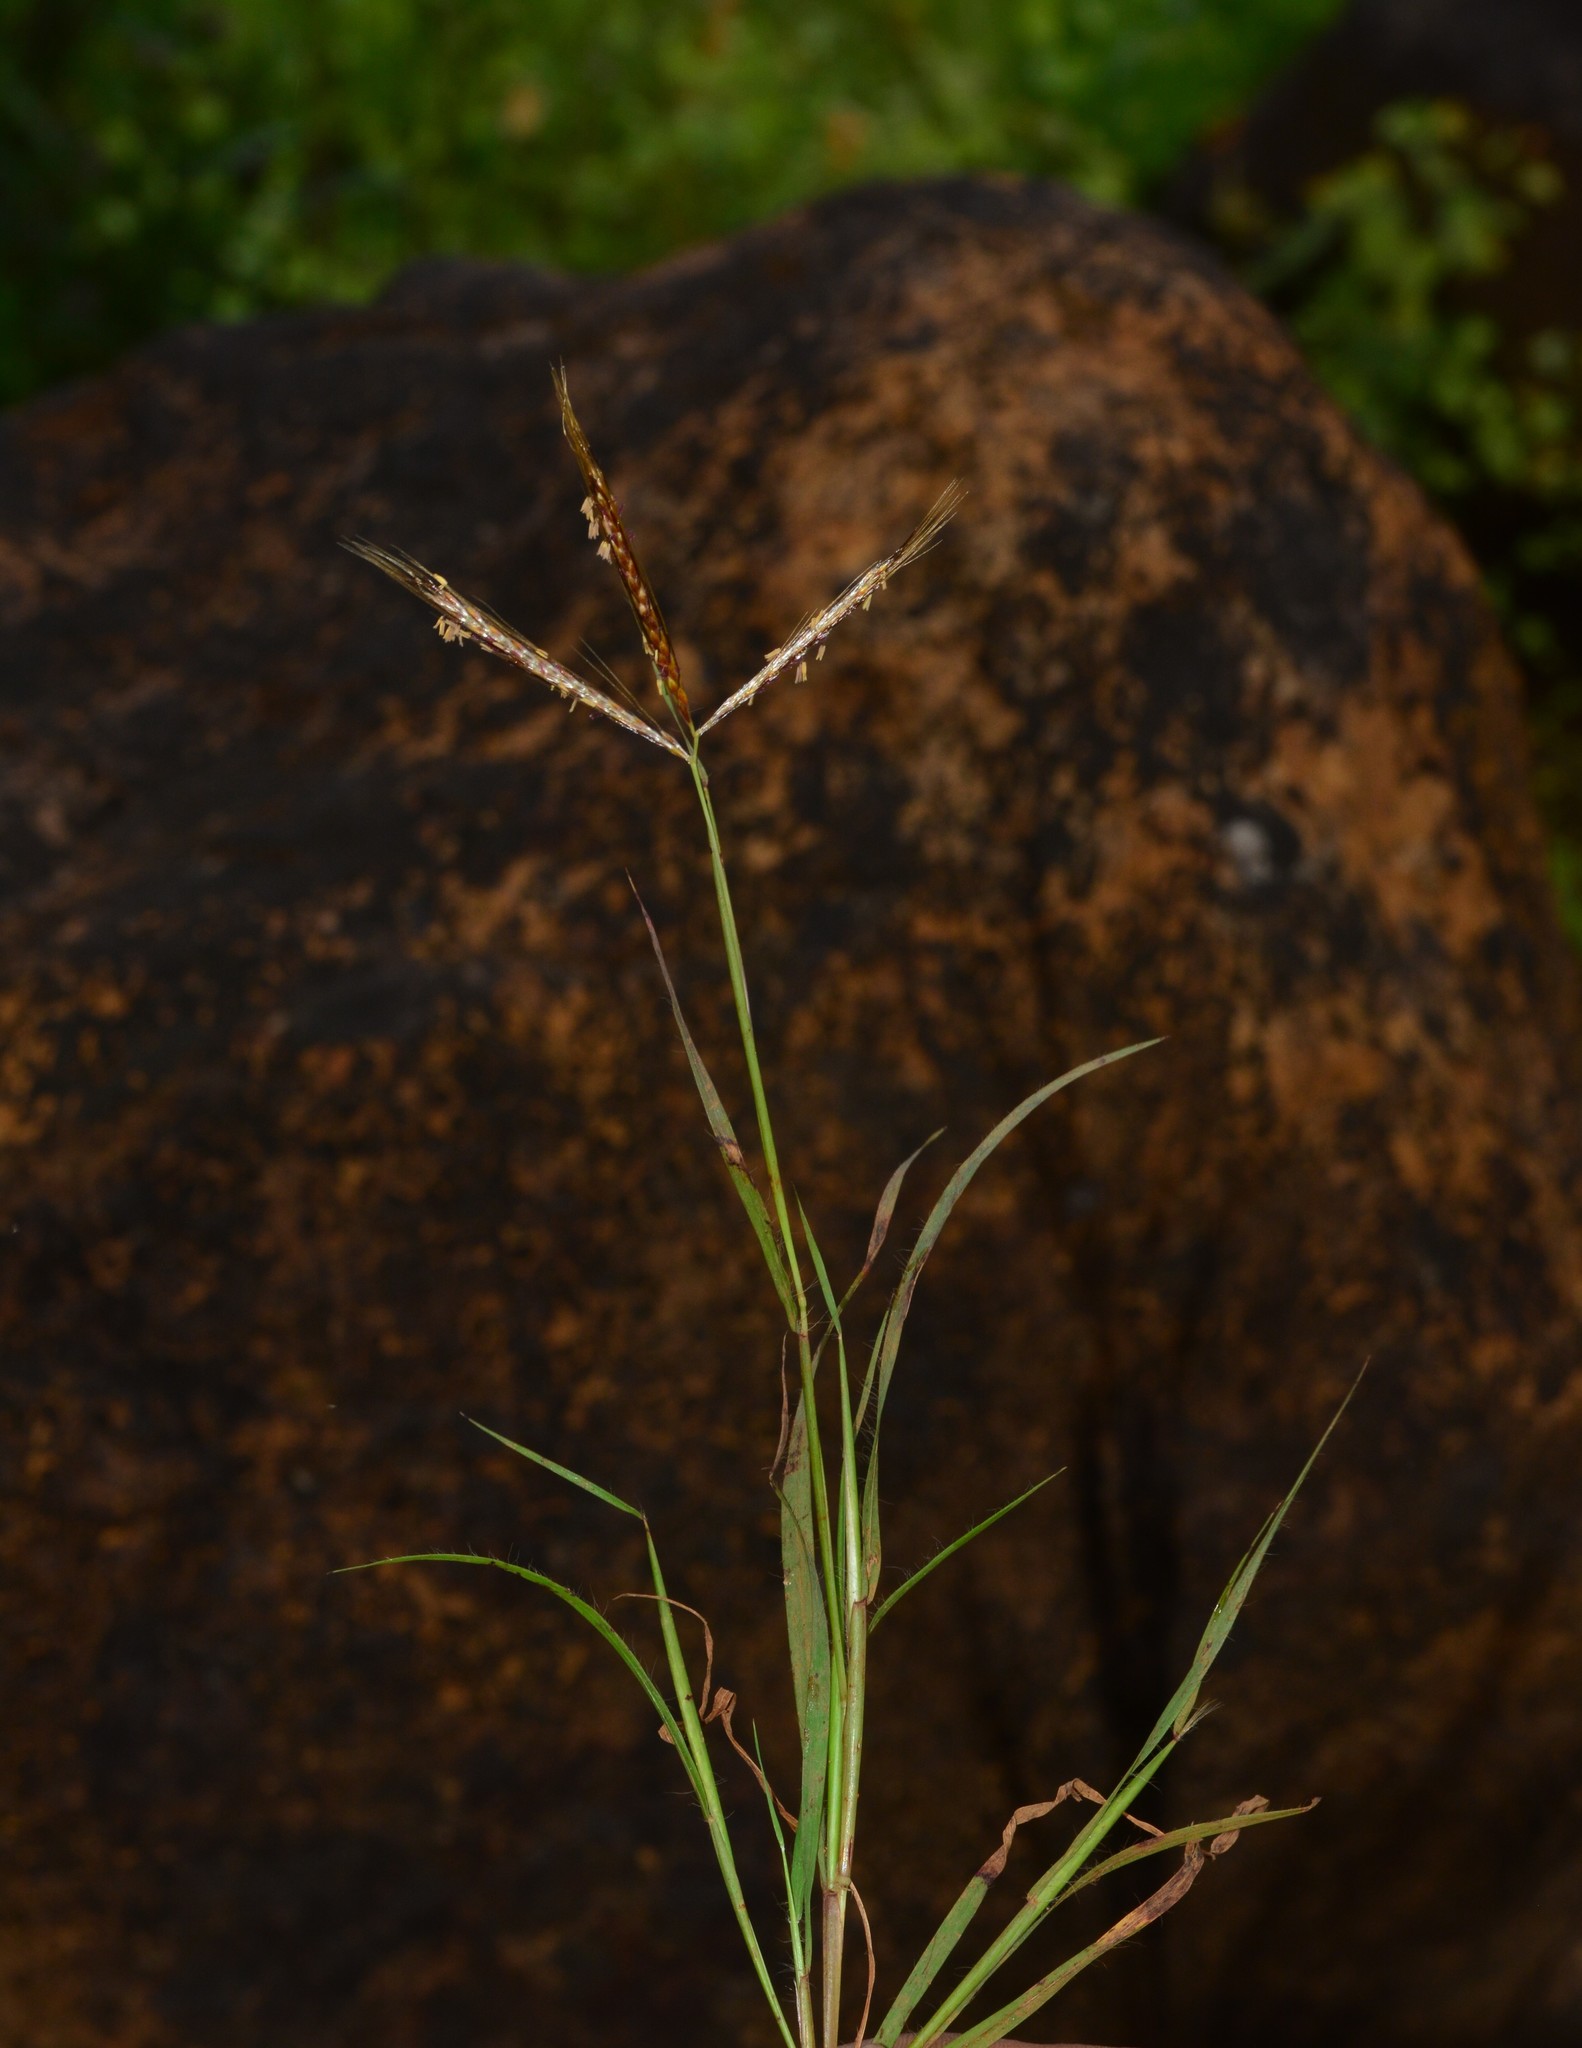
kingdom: Plantae
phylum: Tracheophyta
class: Liliopsida
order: Poales
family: Poaceae
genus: Eulalia
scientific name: Eulalia conjugata
